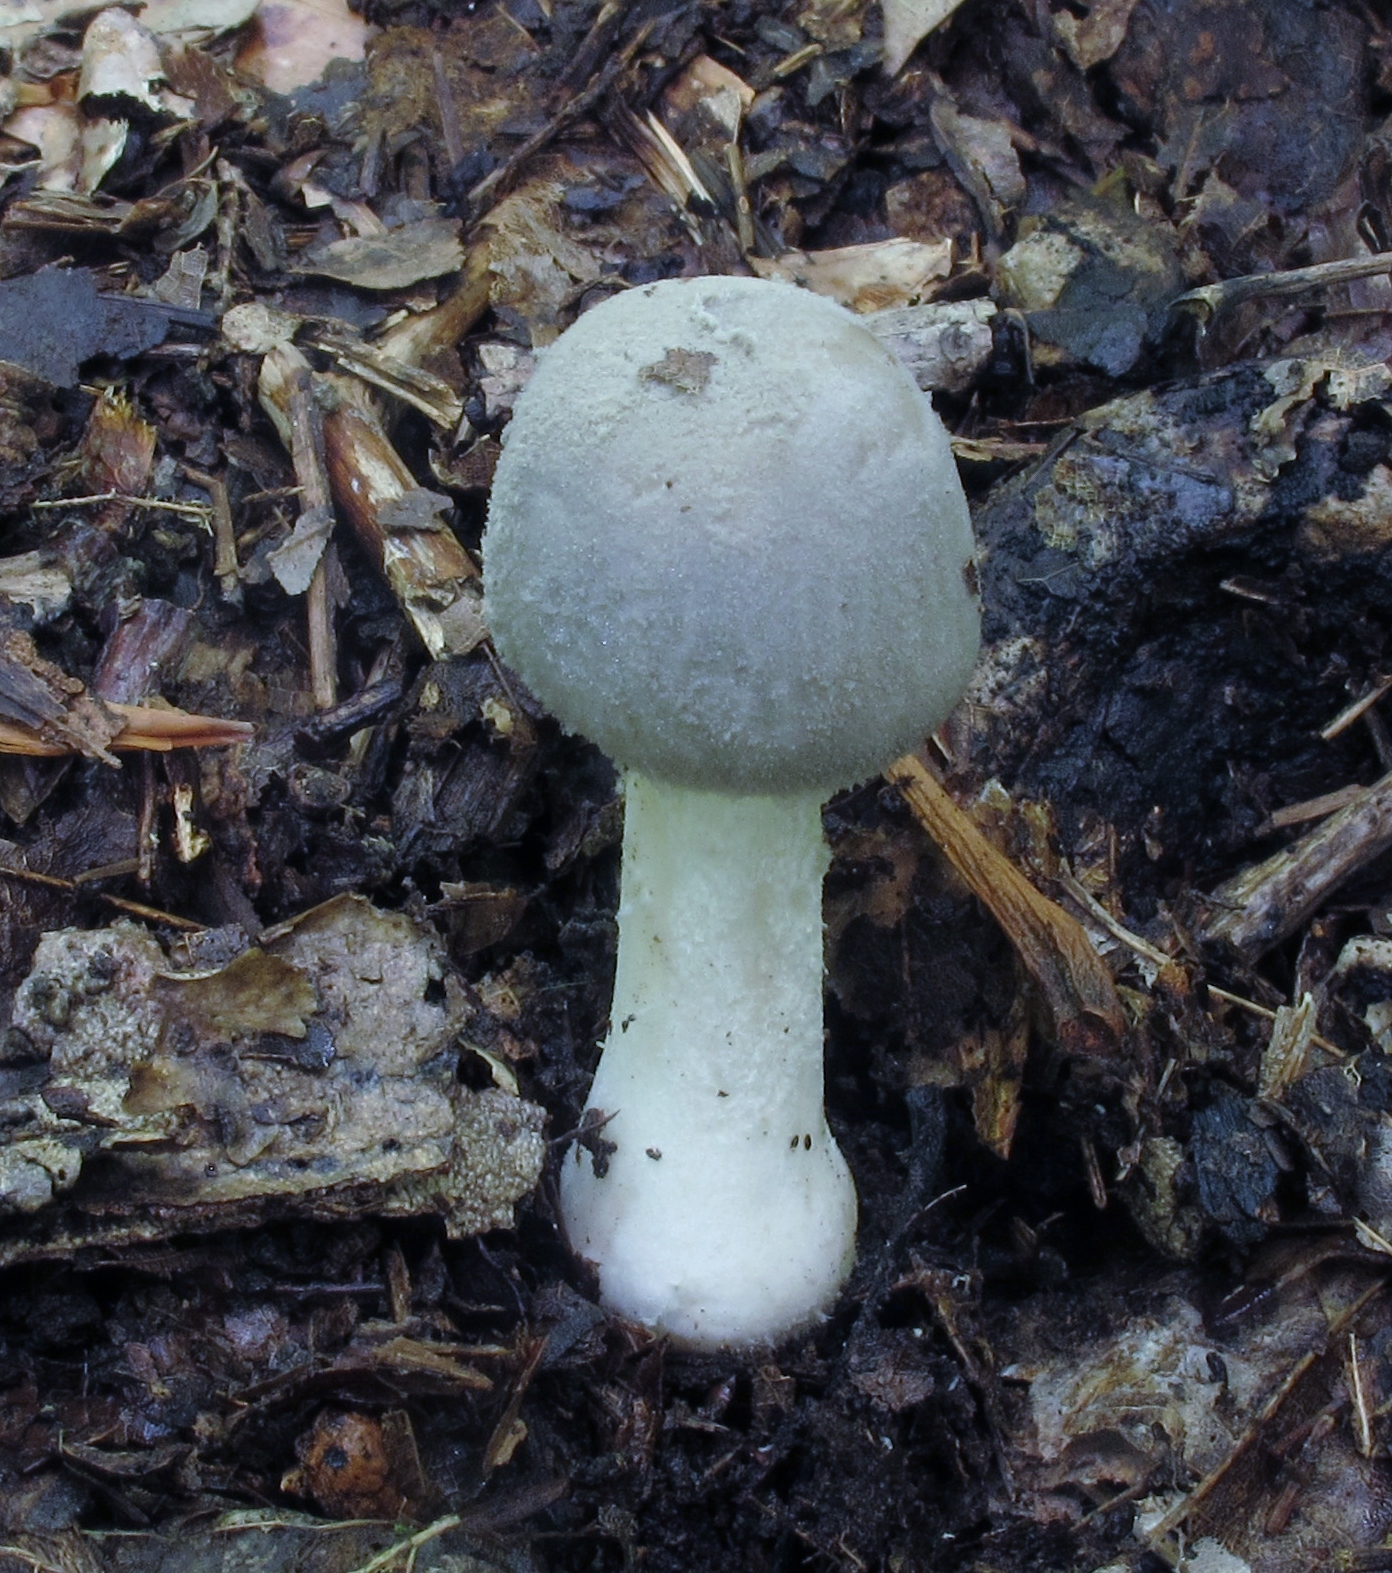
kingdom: Fungi
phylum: Basidiomycota
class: Agaricomycetes
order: Agaricales
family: Amanitaceae
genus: Amanita
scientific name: Amanita farinosa
